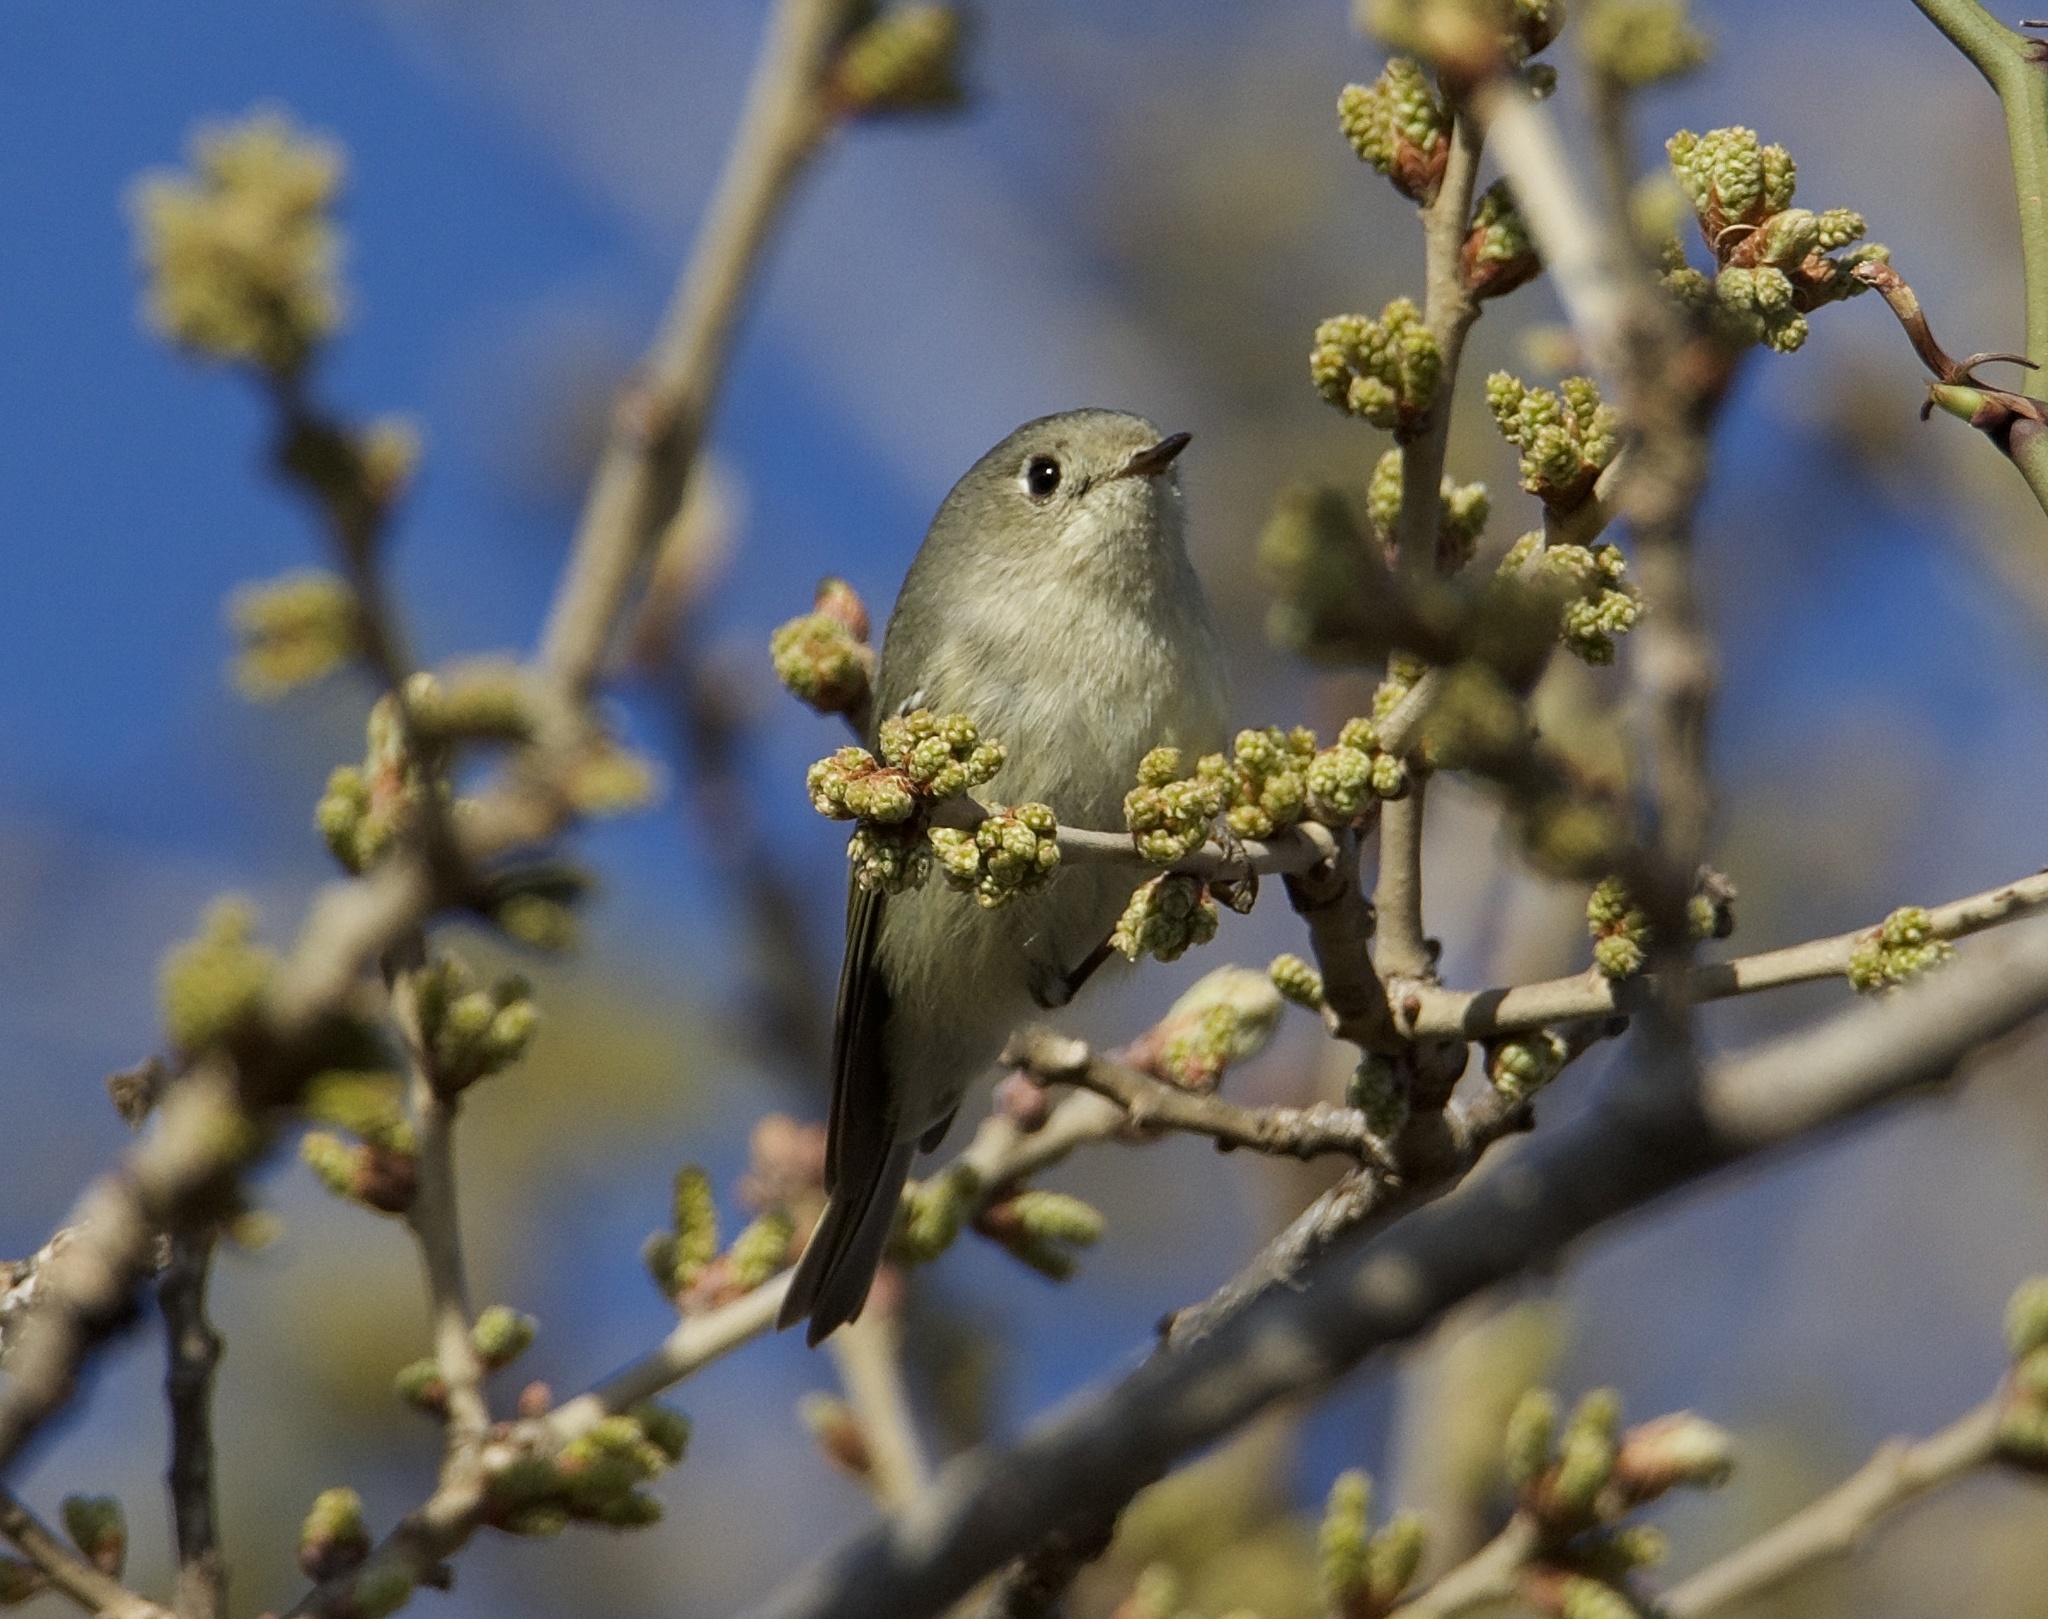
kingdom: Animalia
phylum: Chordata
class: Aves
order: Passeriformes
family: Regulidae
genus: Regulus
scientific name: Regulus calendula
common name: Ruby-crowned kinglet
